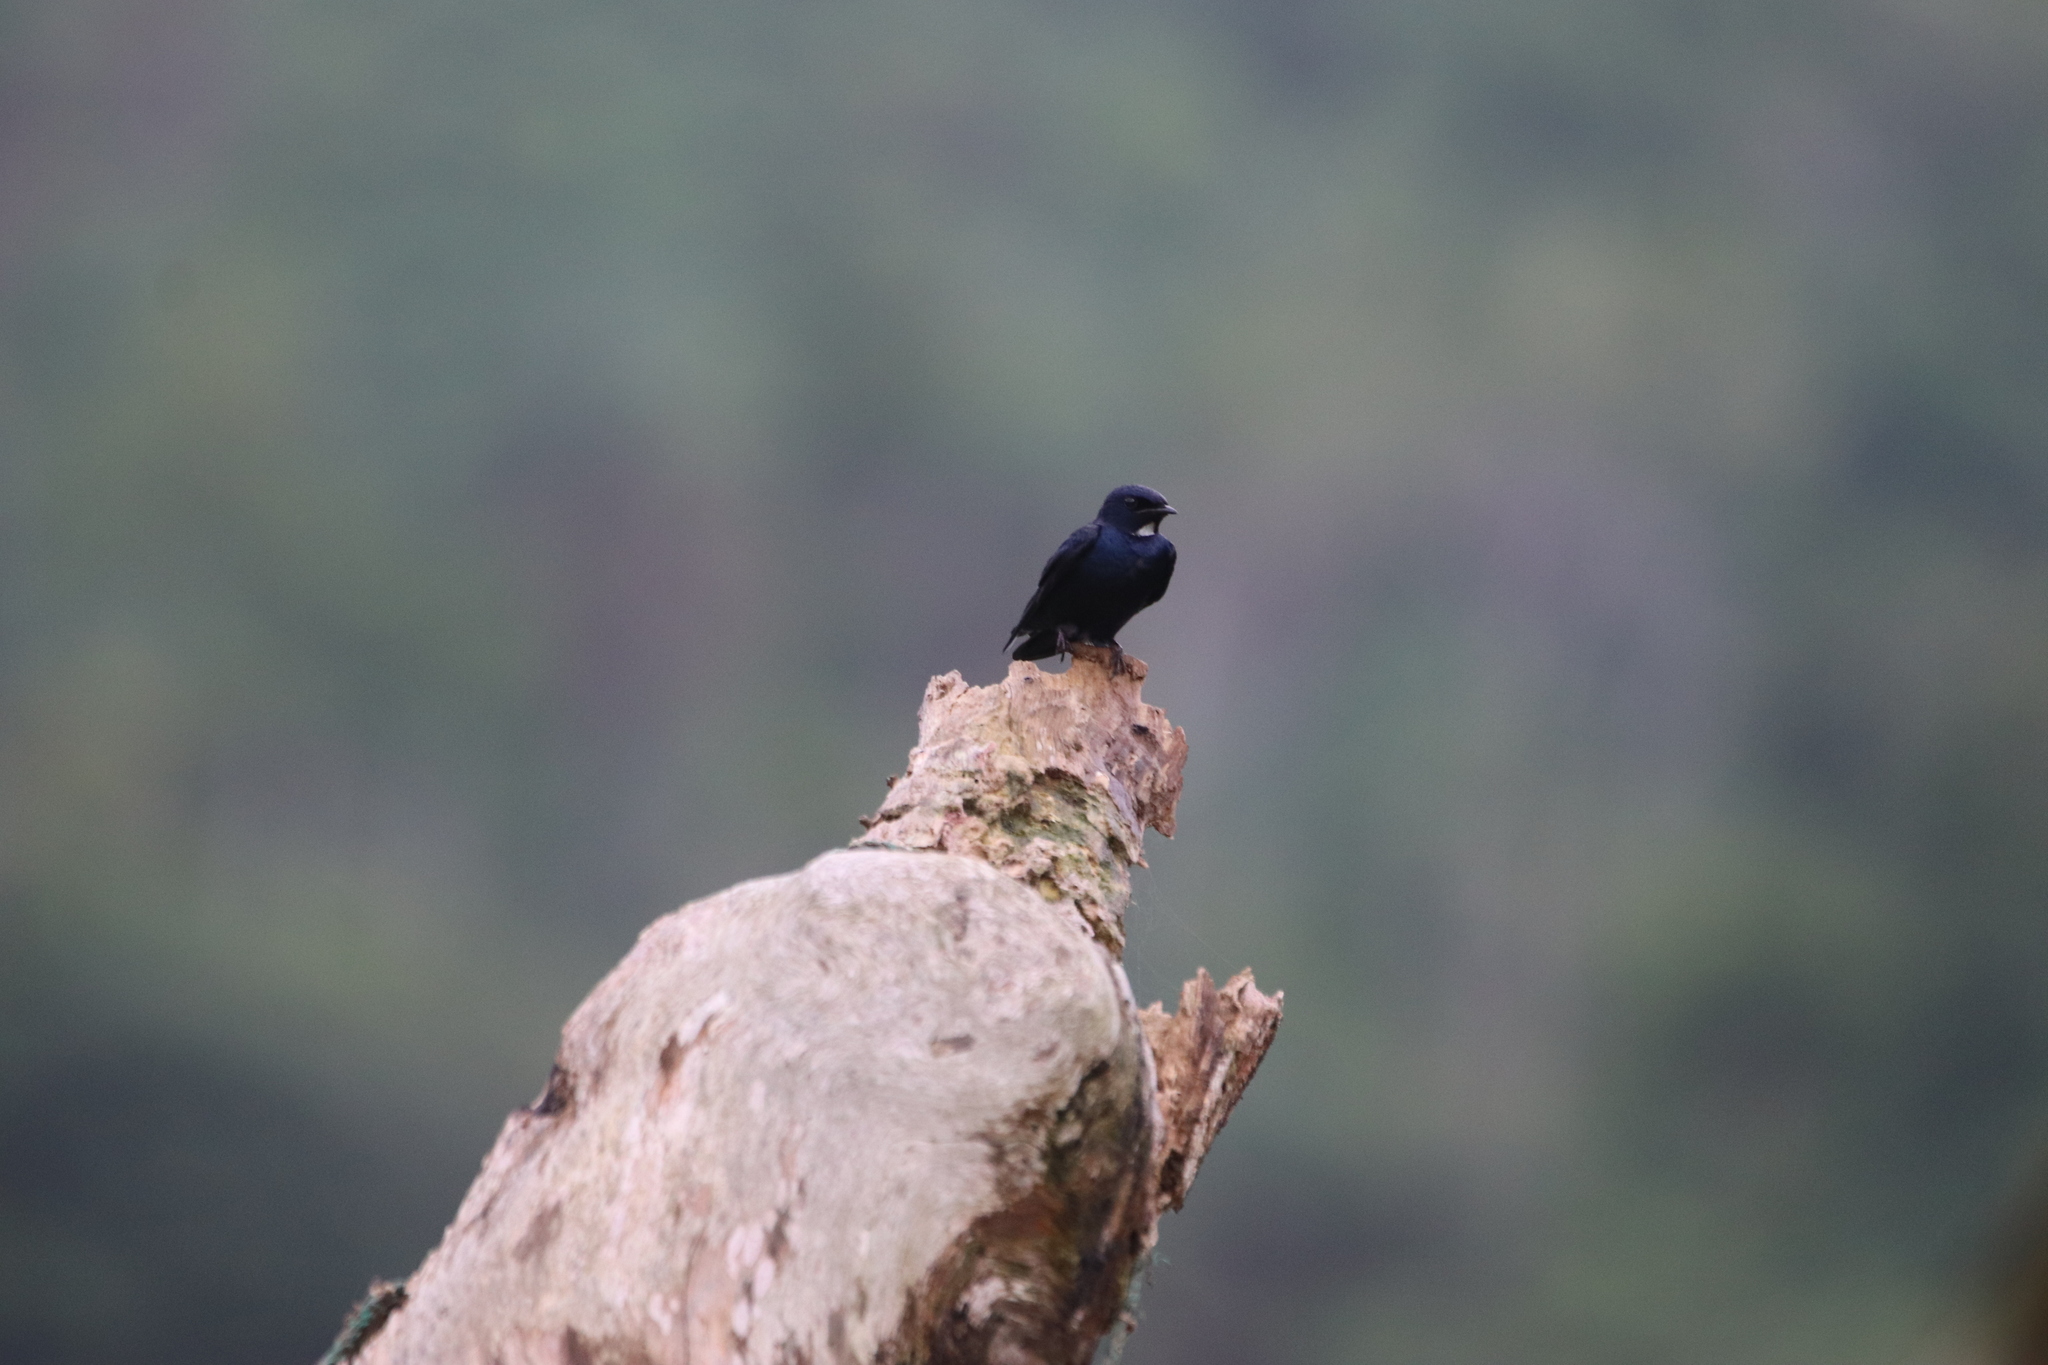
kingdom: Animalia
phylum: Chordata
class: Aves
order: Passeriformes
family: Hirundinidae
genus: Hirundo
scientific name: Hirundo nigrita
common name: White-bibbed swallow
